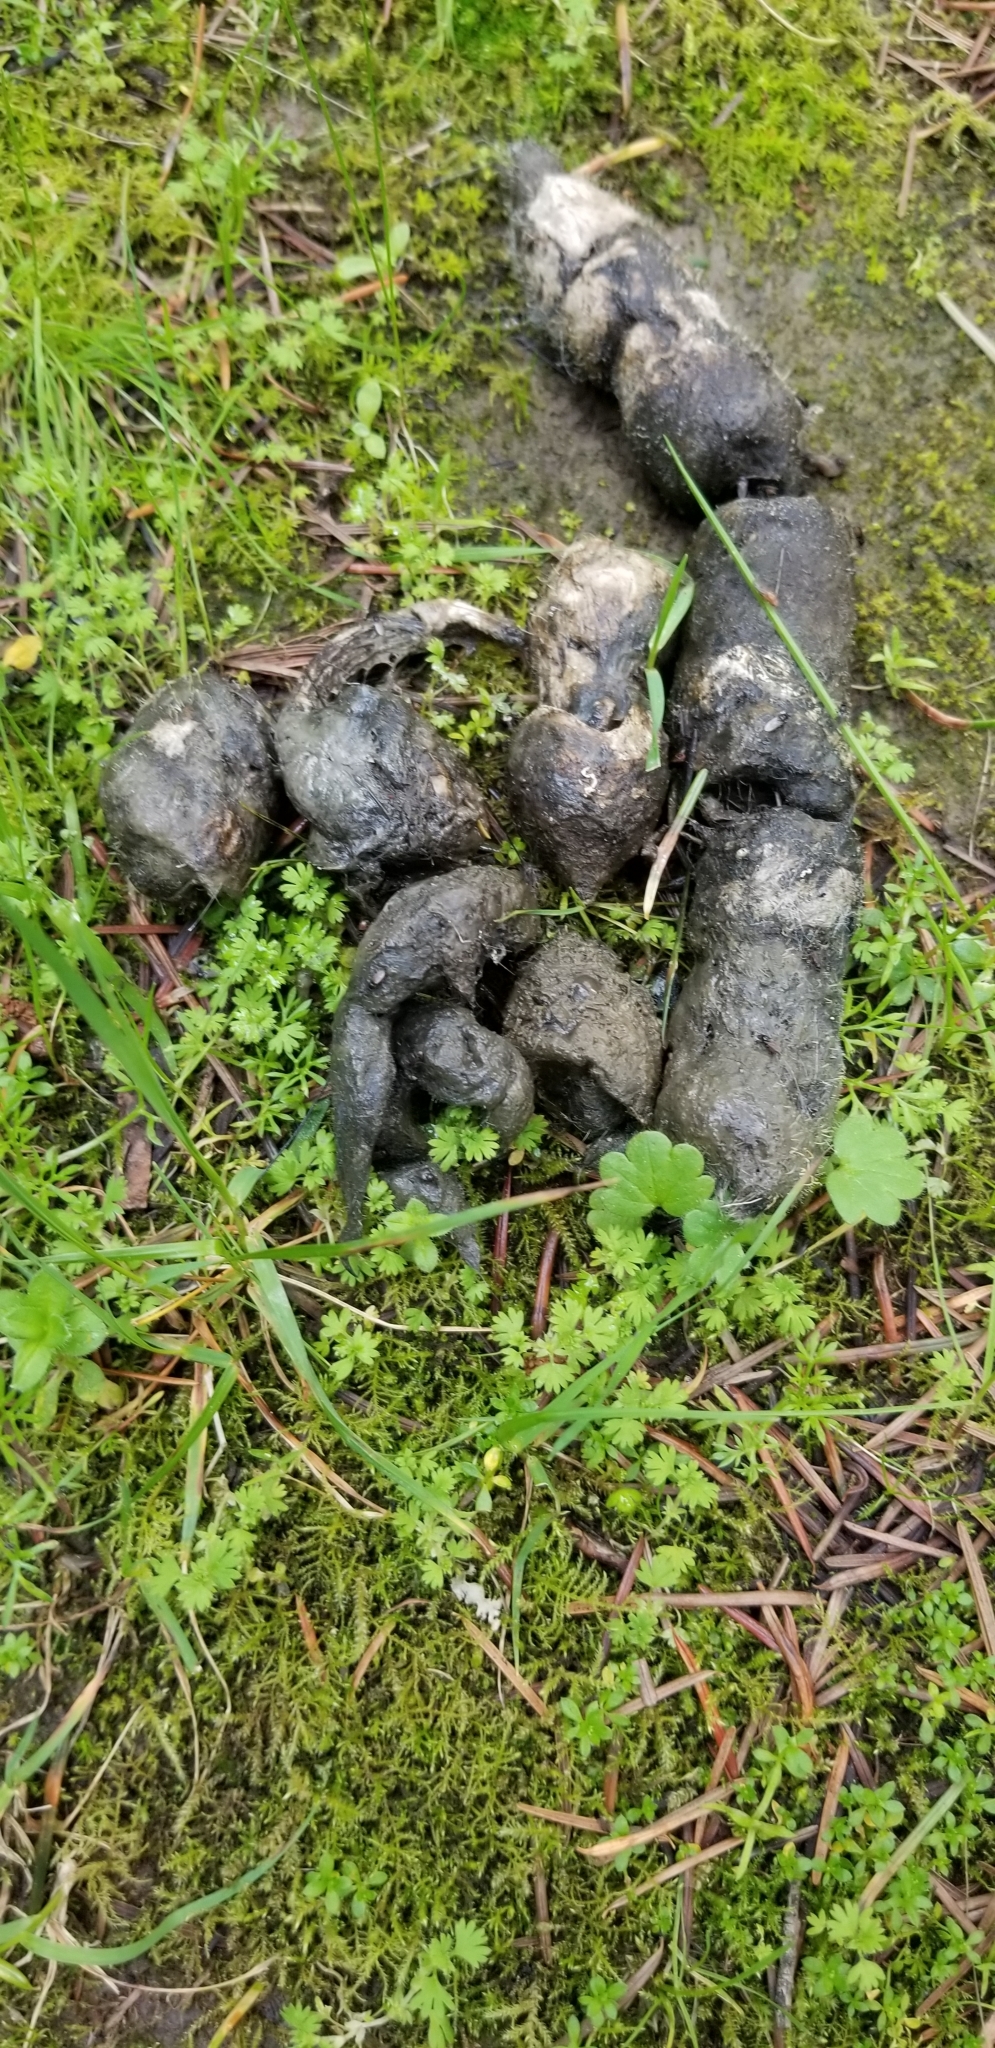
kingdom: Animalia
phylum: Chordata
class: Mammalia
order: Carnivora
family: Felidae
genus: Lynx
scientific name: Lynx rufus
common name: Bobcat
